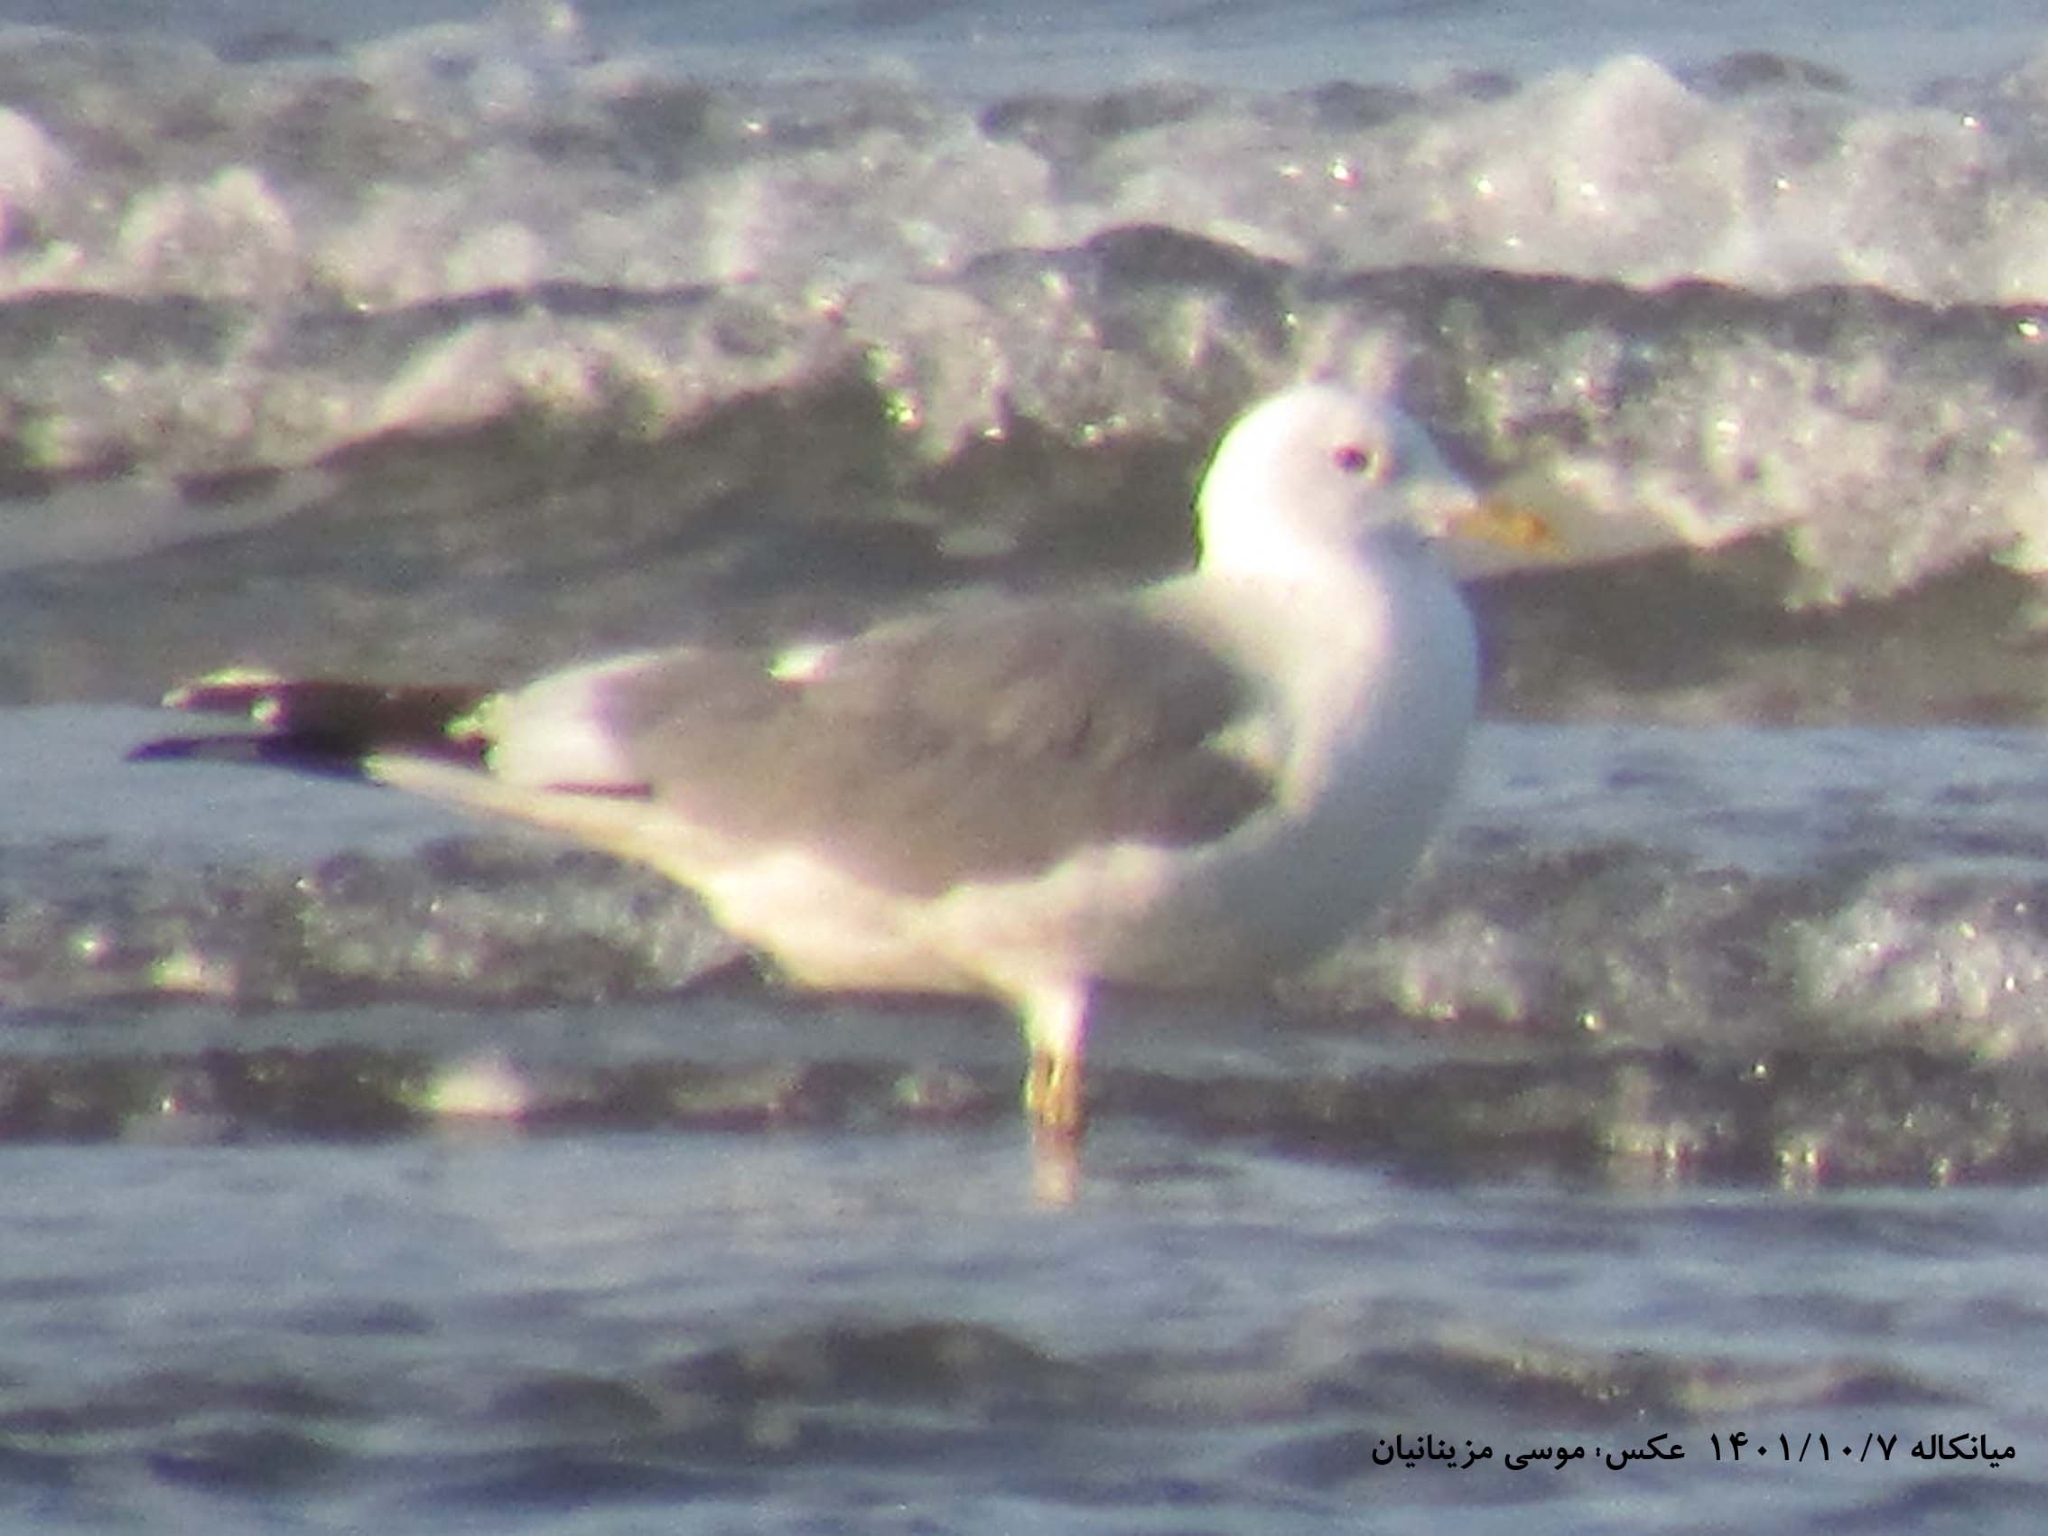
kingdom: Animalia
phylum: Chordata
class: Aves
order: Charadriiformes
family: Laridae
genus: Larus
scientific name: Larus canus
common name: Mew gull
